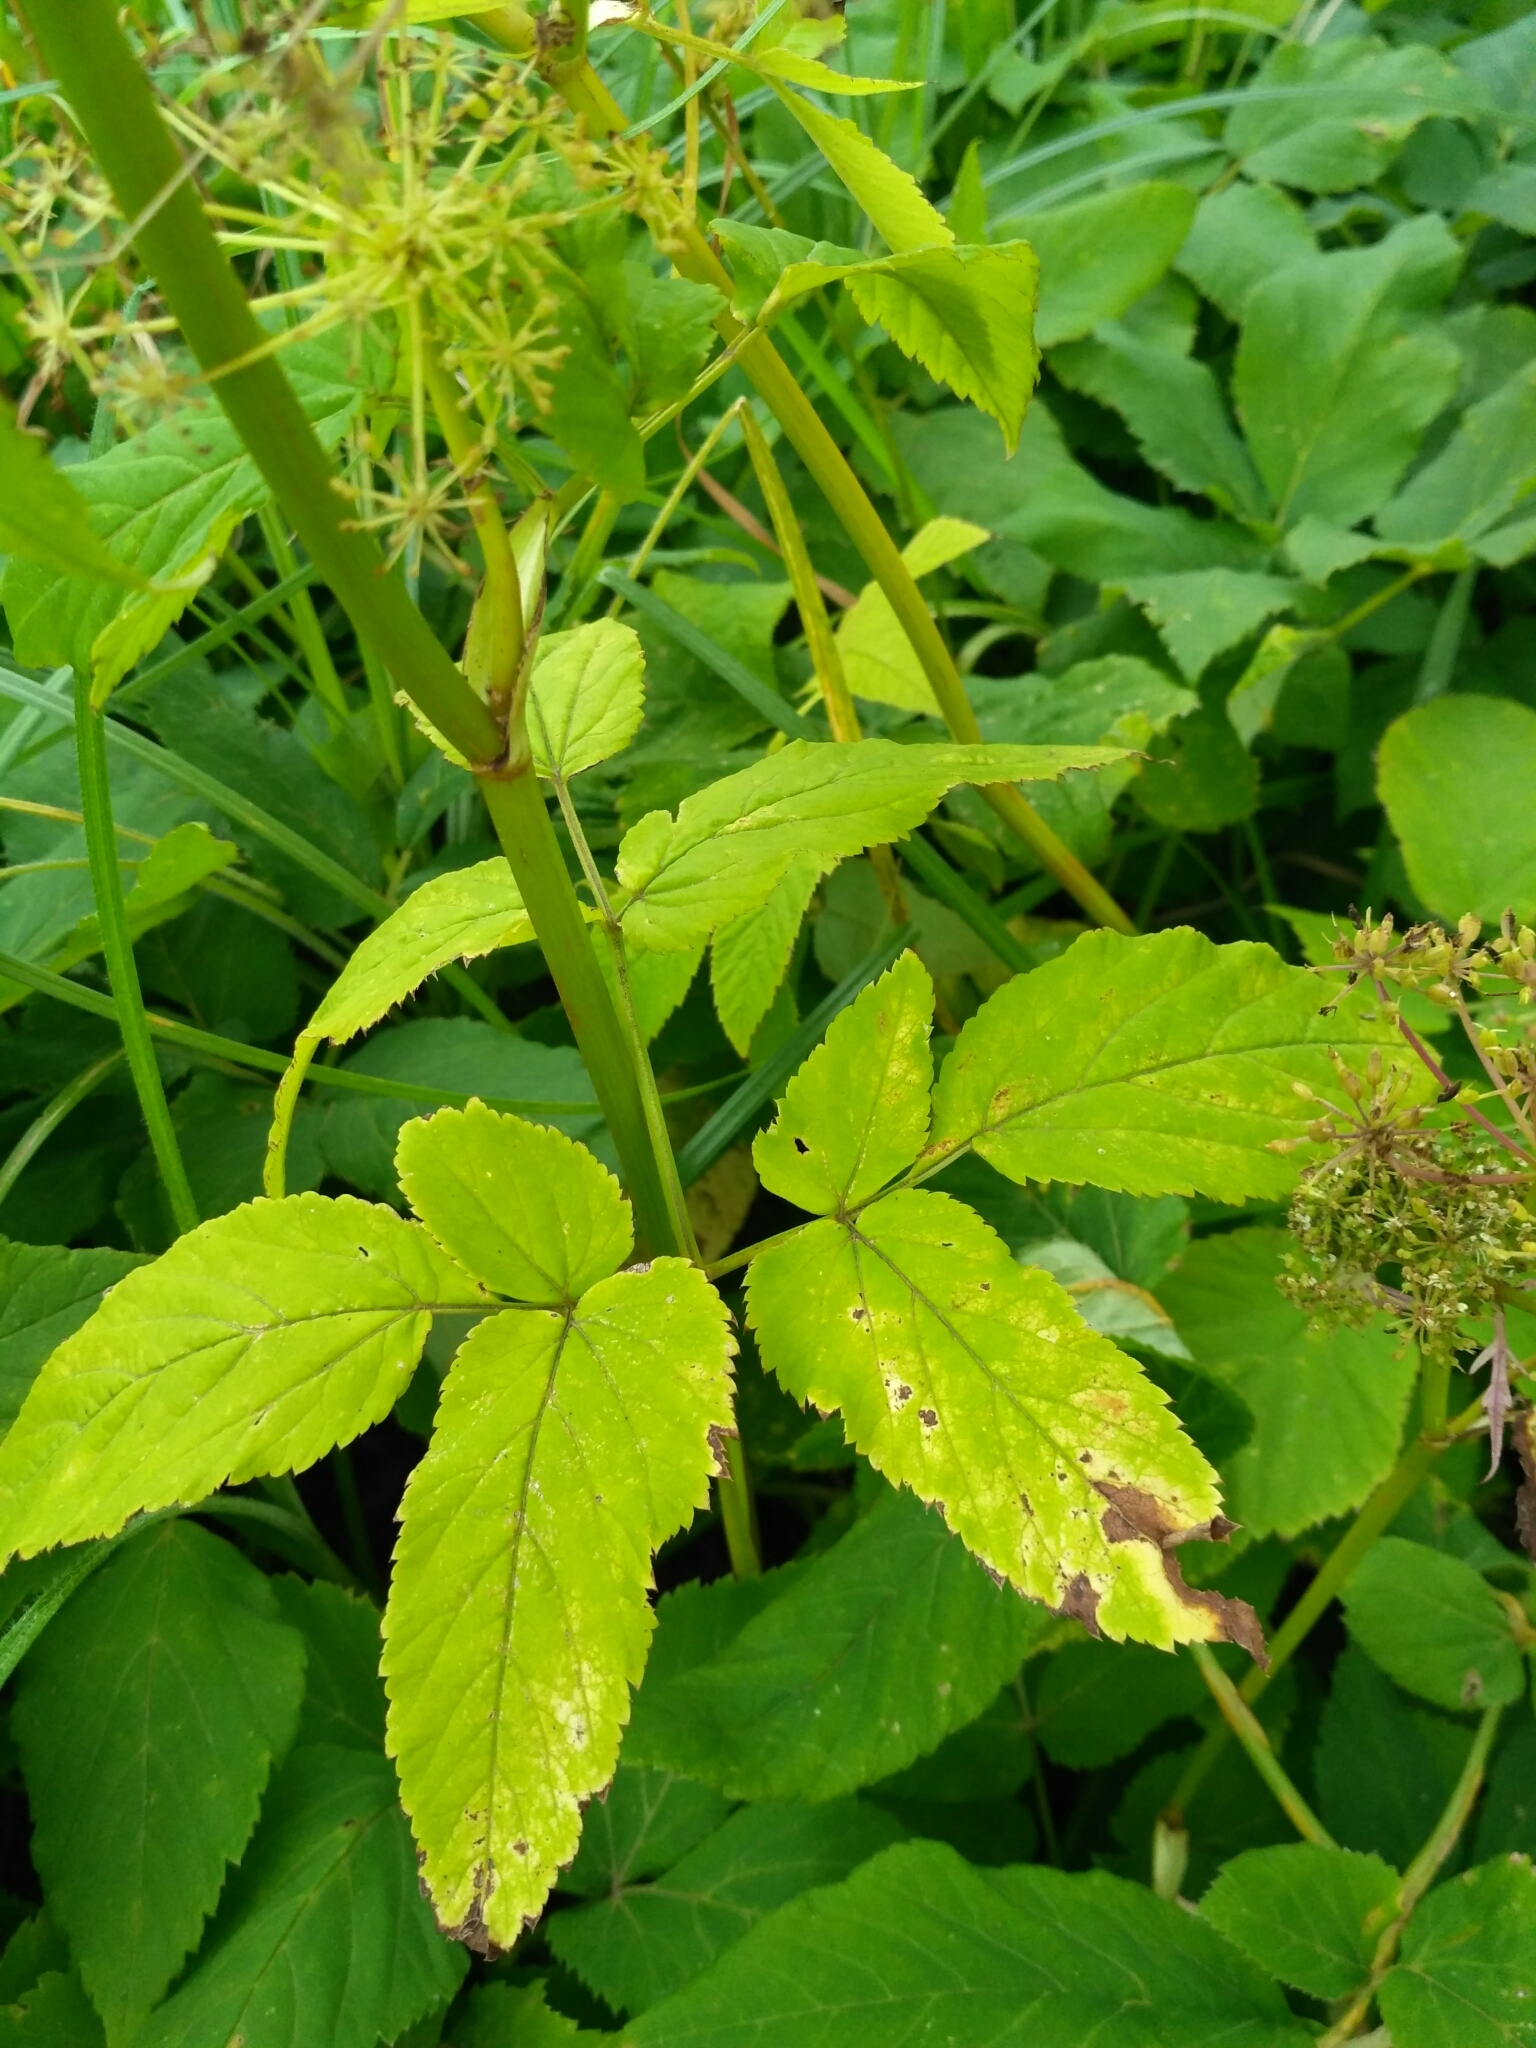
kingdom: Plantae
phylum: Tracheophyta
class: Magnoliopsida
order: Apiales
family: Apiaceae
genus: Aegopodium
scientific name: Aegopodium podagraria
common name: Ground-elder
